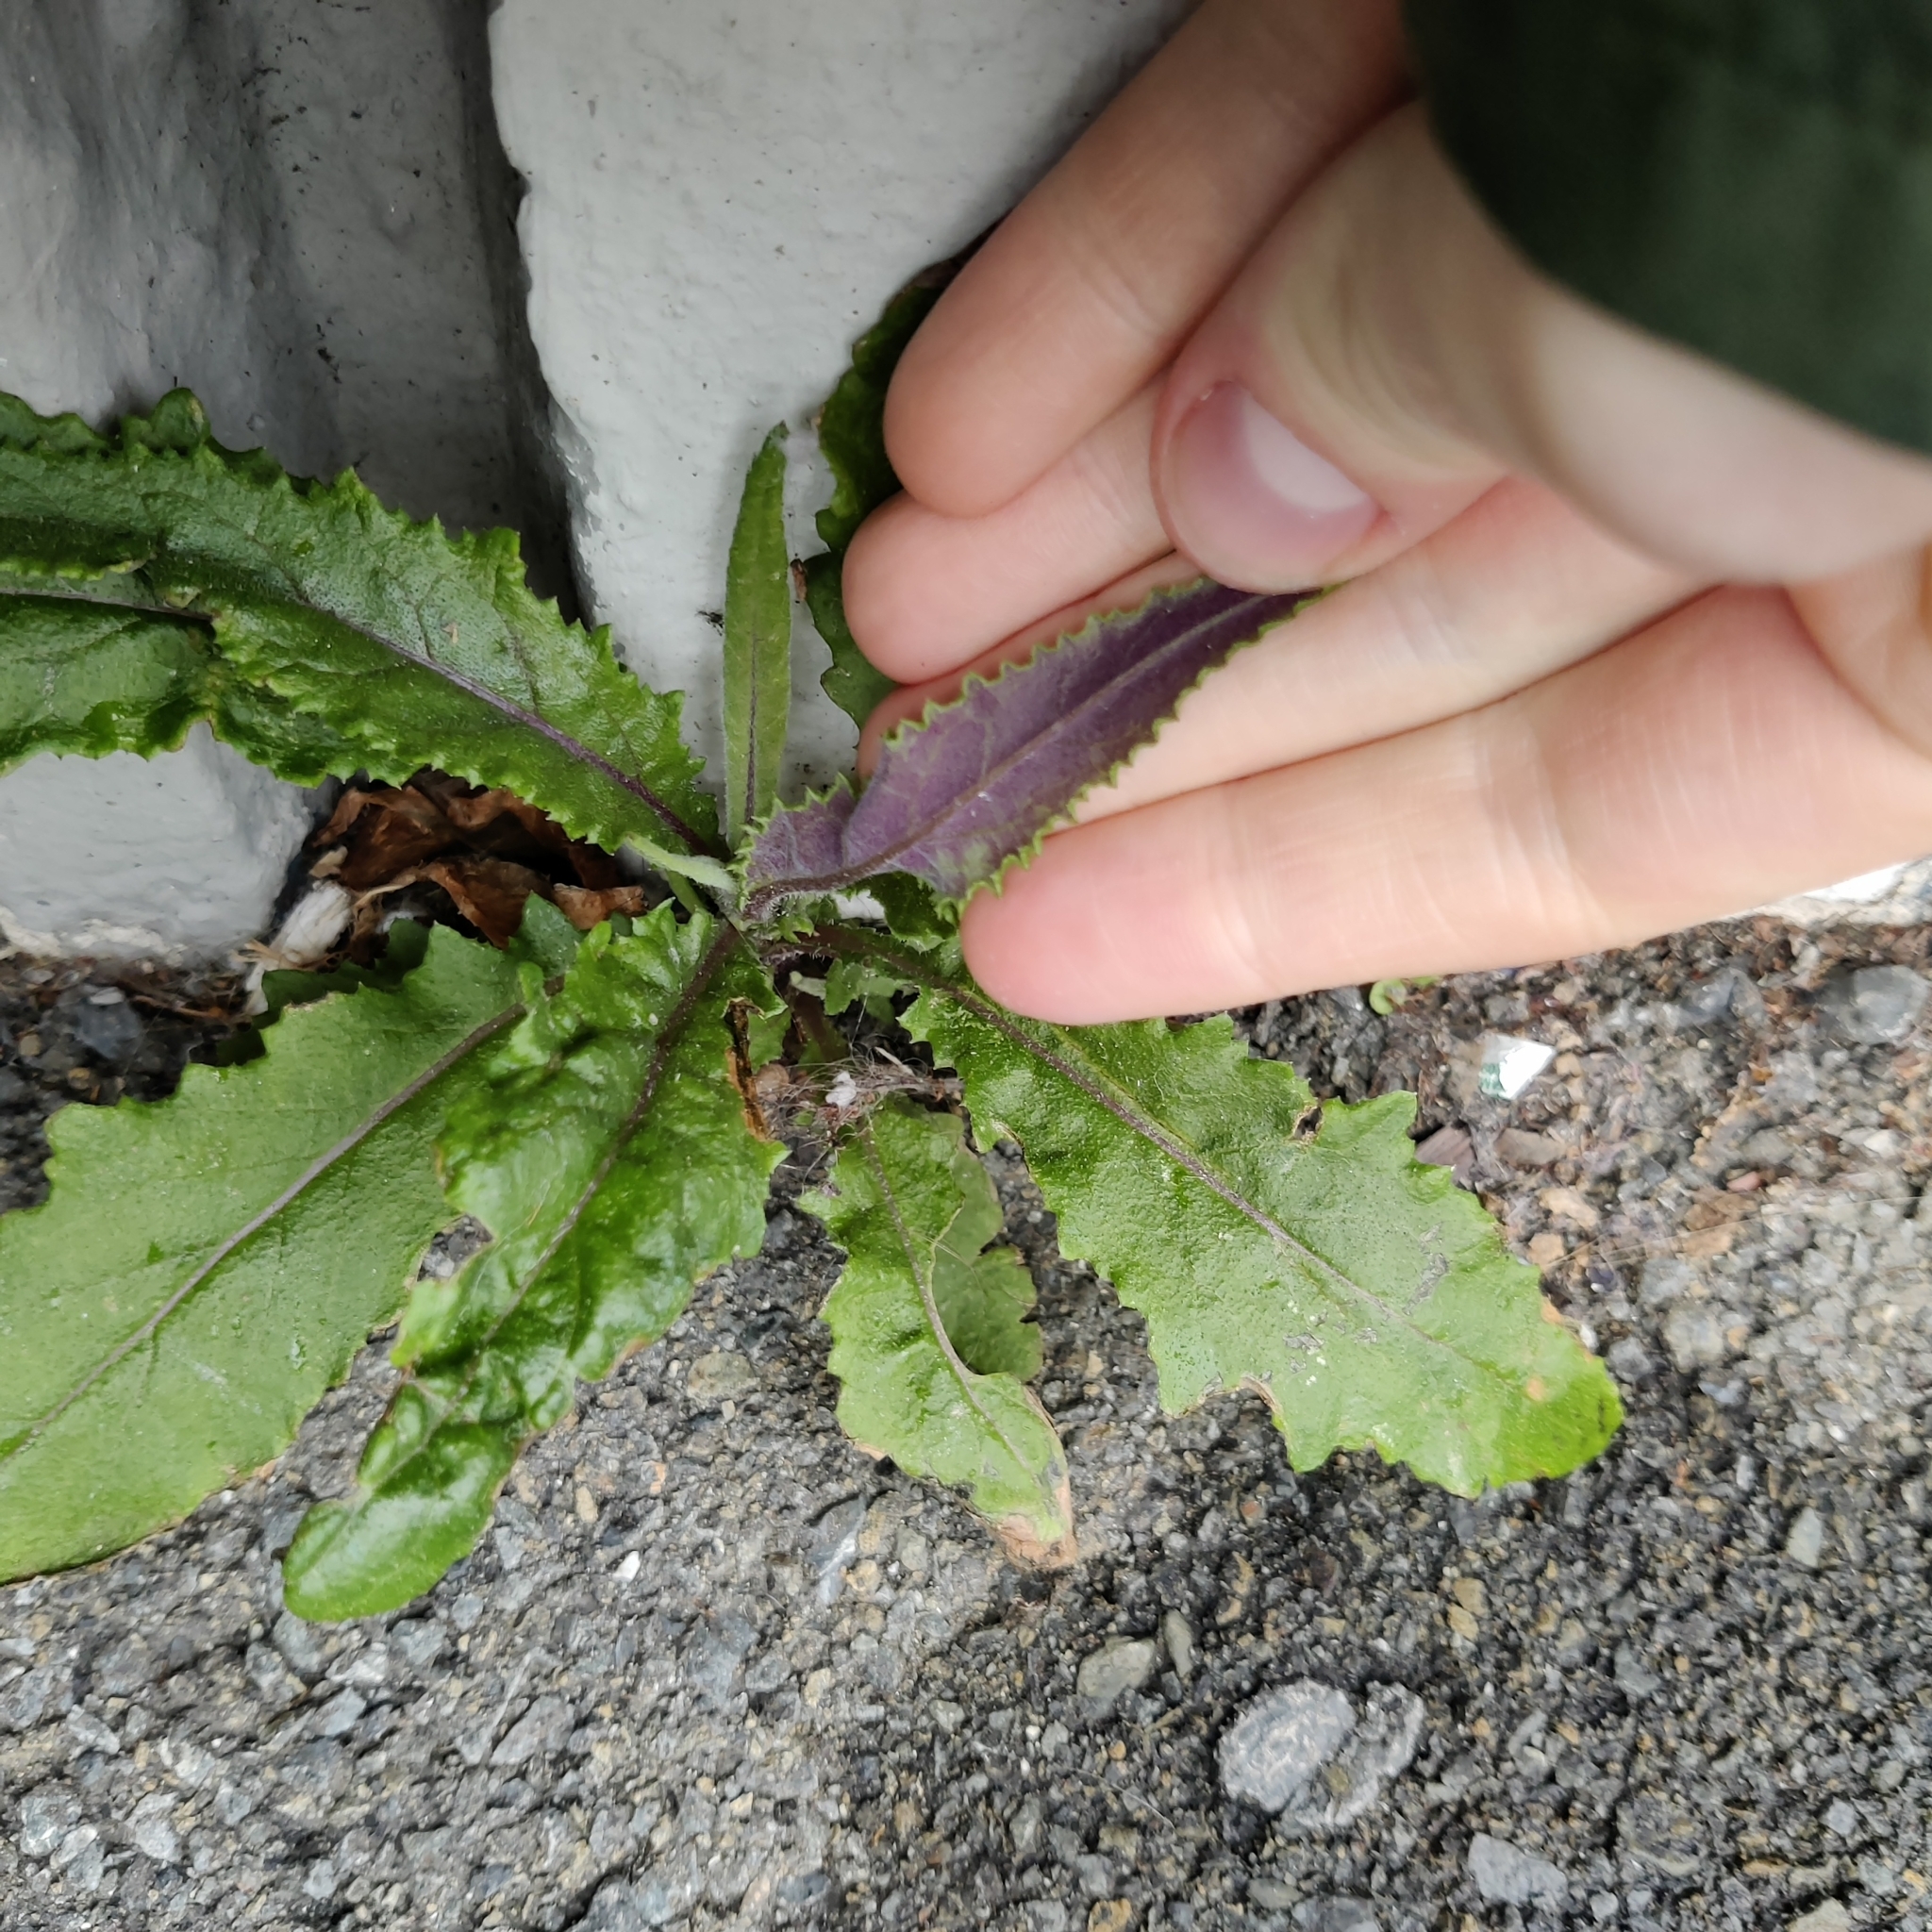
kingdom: Plantae
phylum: Tracheophyta
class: Magnoliopsida
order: Asterales
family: Asteraceae
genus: Senecio
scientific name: Senecio minimus
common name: Toothed fireweed
